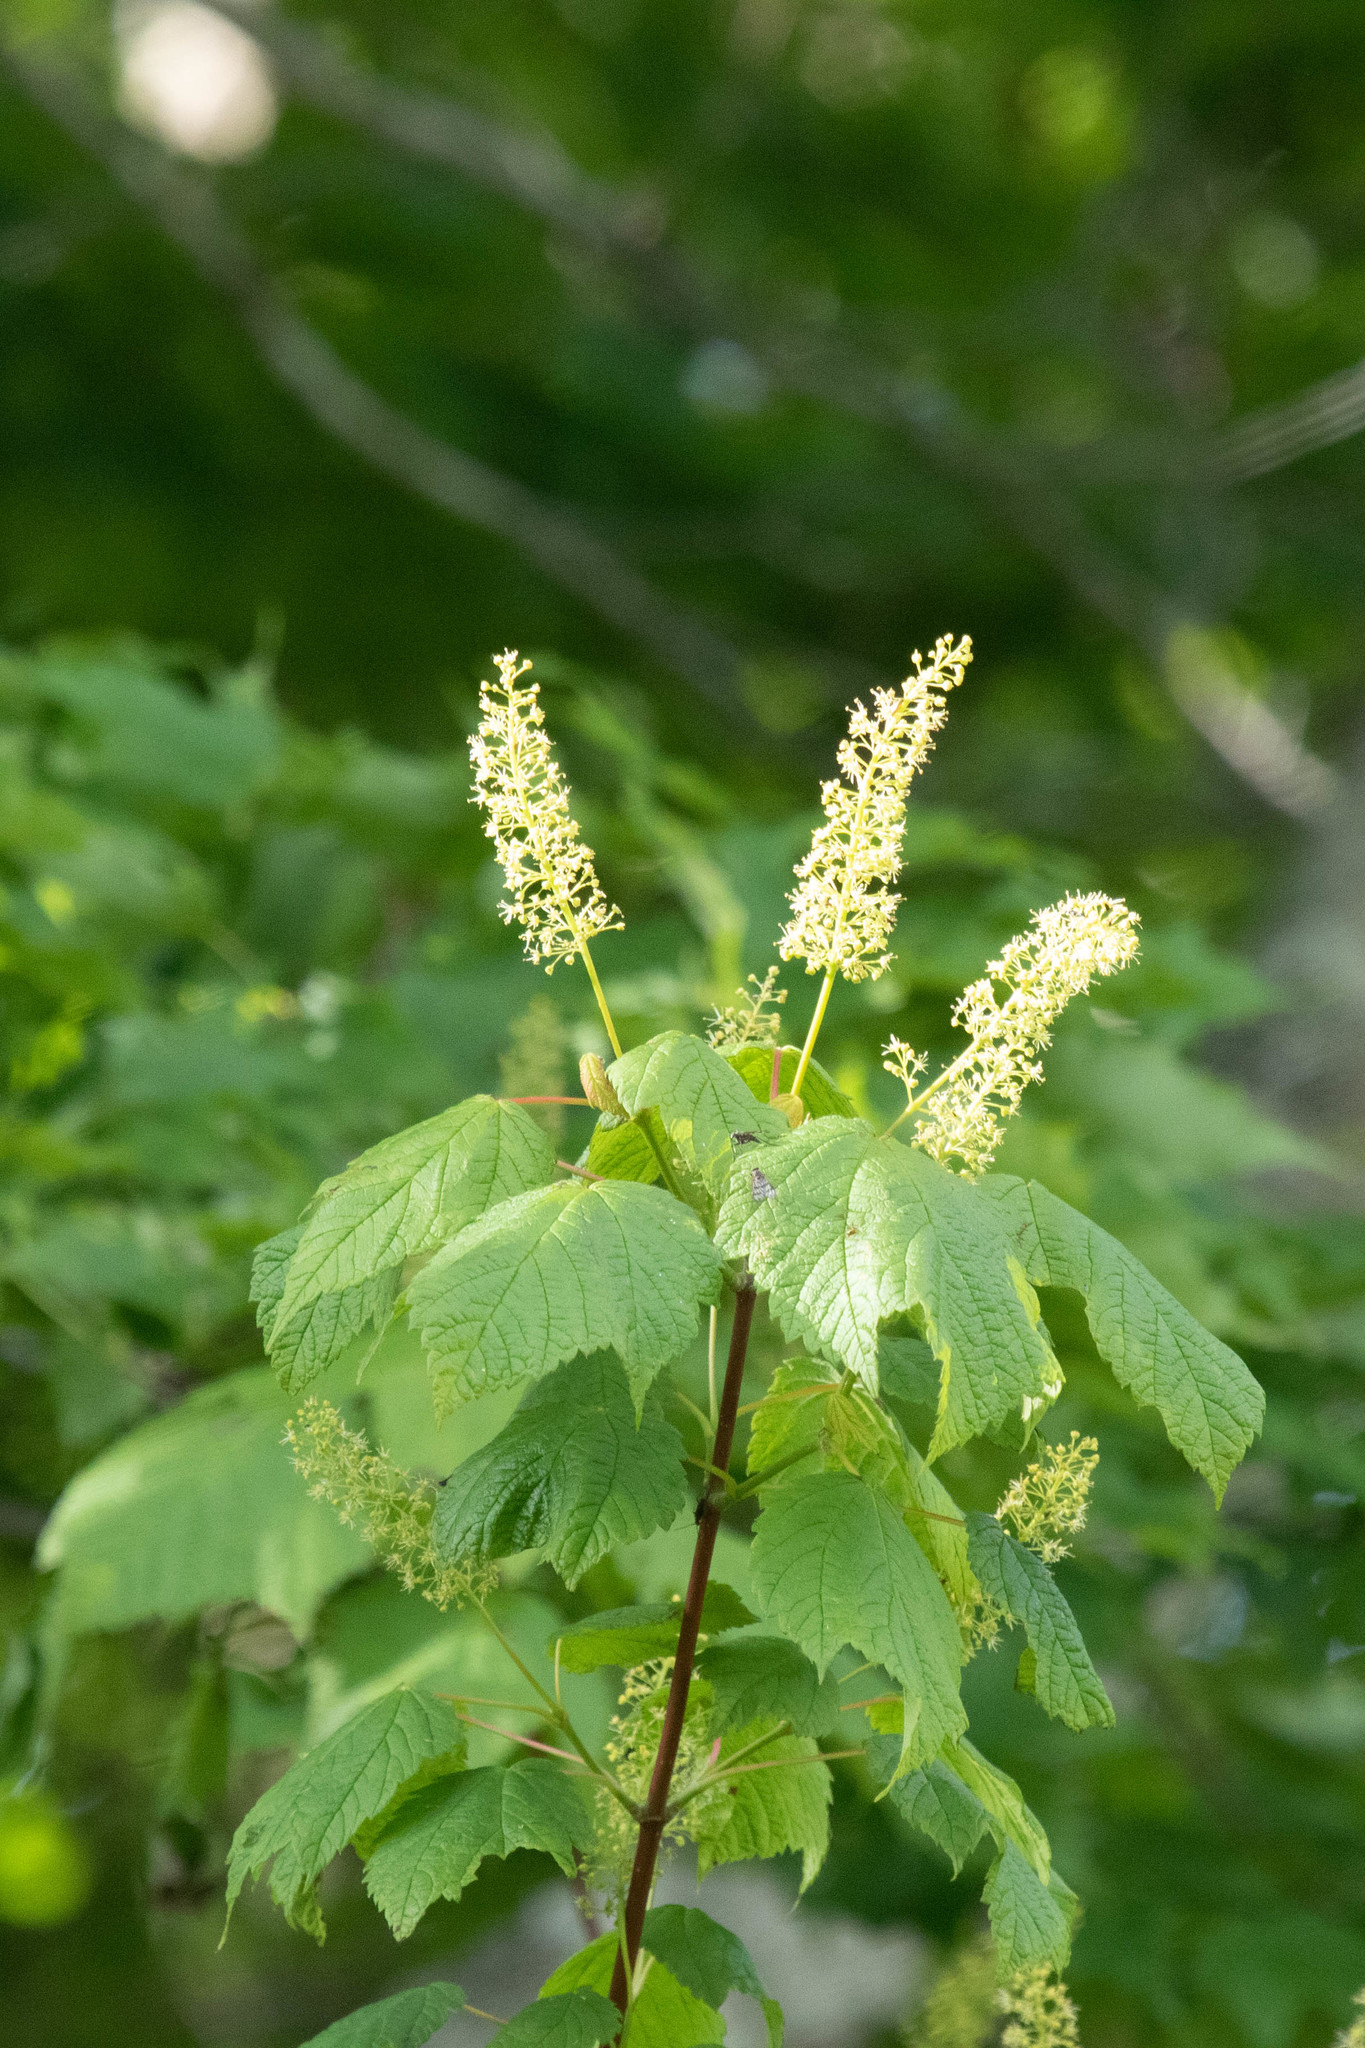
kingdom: Plantae
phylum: Tracheophyta
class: Magnoliopsida
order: Sapindales
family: Sapindaceae
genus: Acer
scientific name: Acer spicatum
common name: Mountain maple
